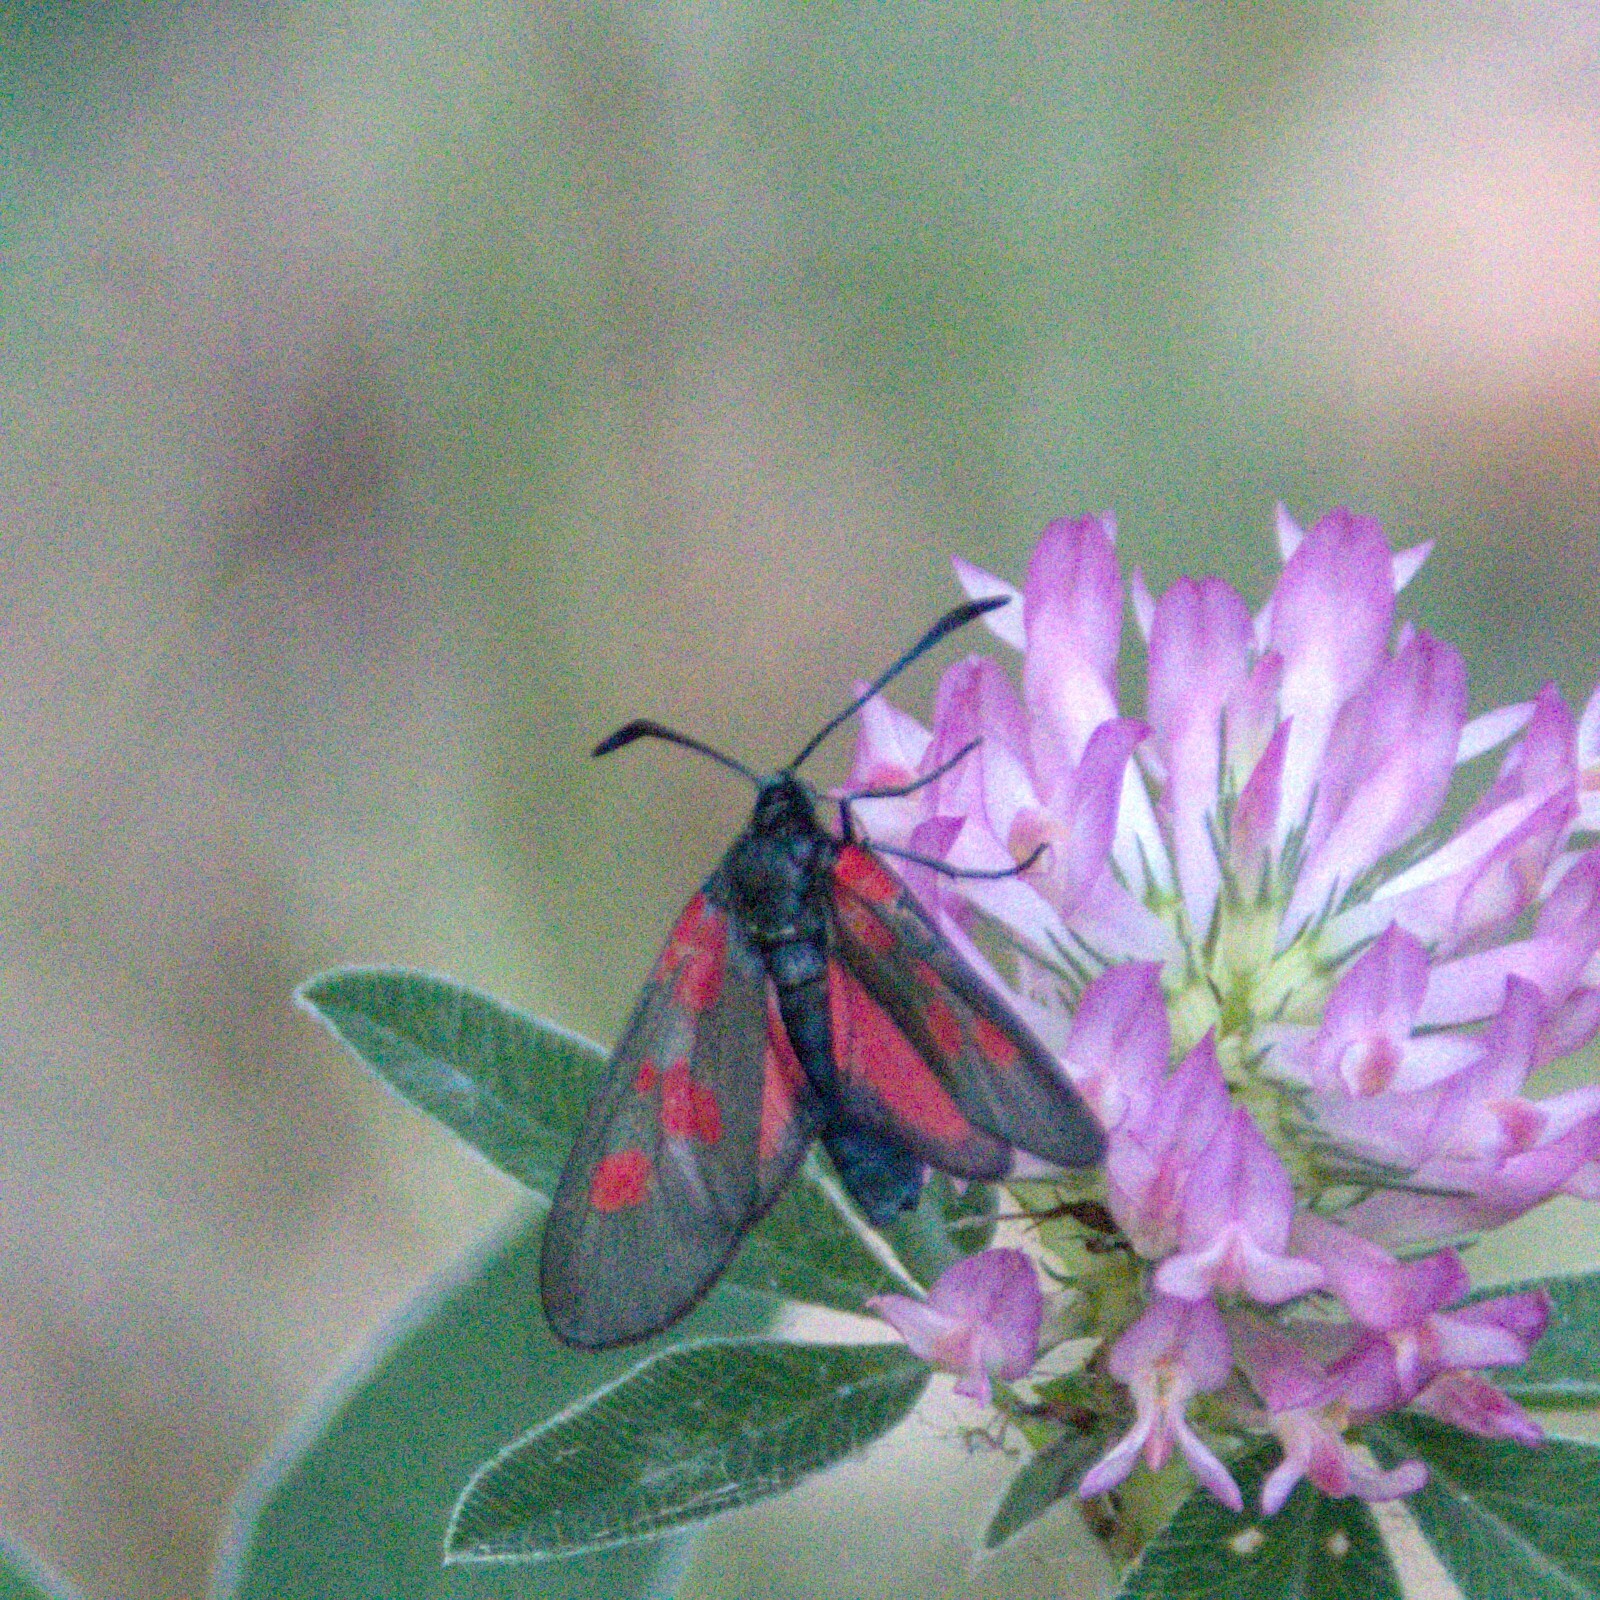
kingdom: Animalia
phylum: Arthropoda
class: Insecta
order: Lepidoptera
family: Zygaenidae
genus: Zygaena
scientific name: Zygaena viciae
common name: New forest burnet
